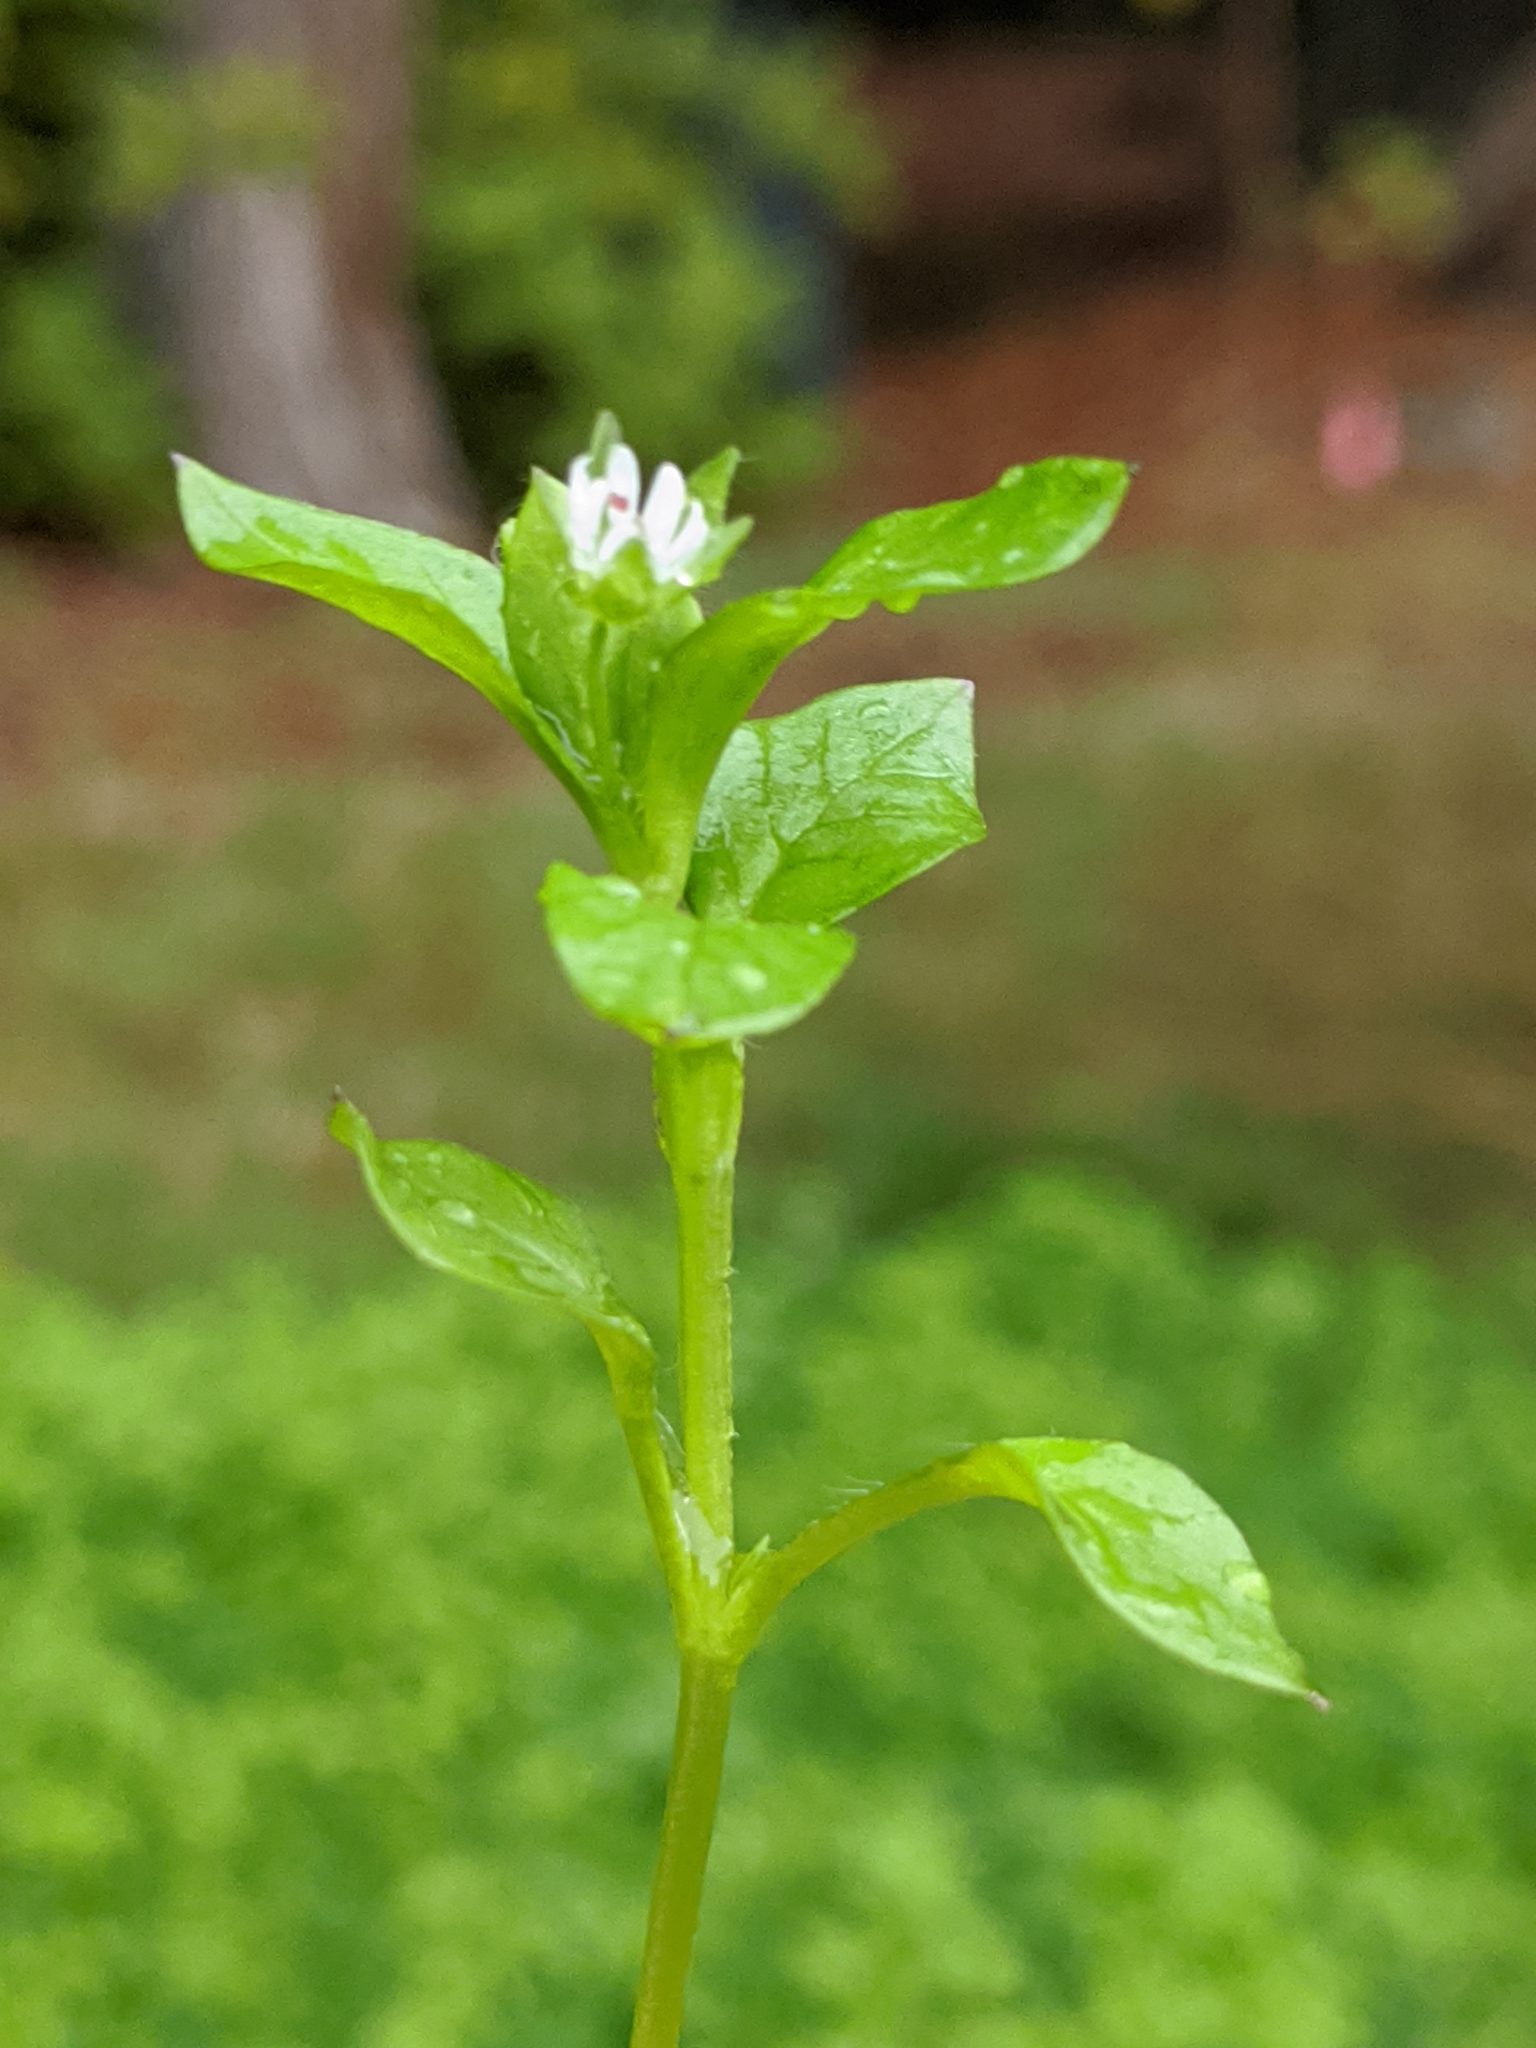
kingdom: Plantae
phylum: Tracheophyta
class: Magnoliopsida
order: Caryophyllales
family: Caryophyllaceae
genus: Stellaria
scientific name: Stellaria media
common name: Common chickweed
